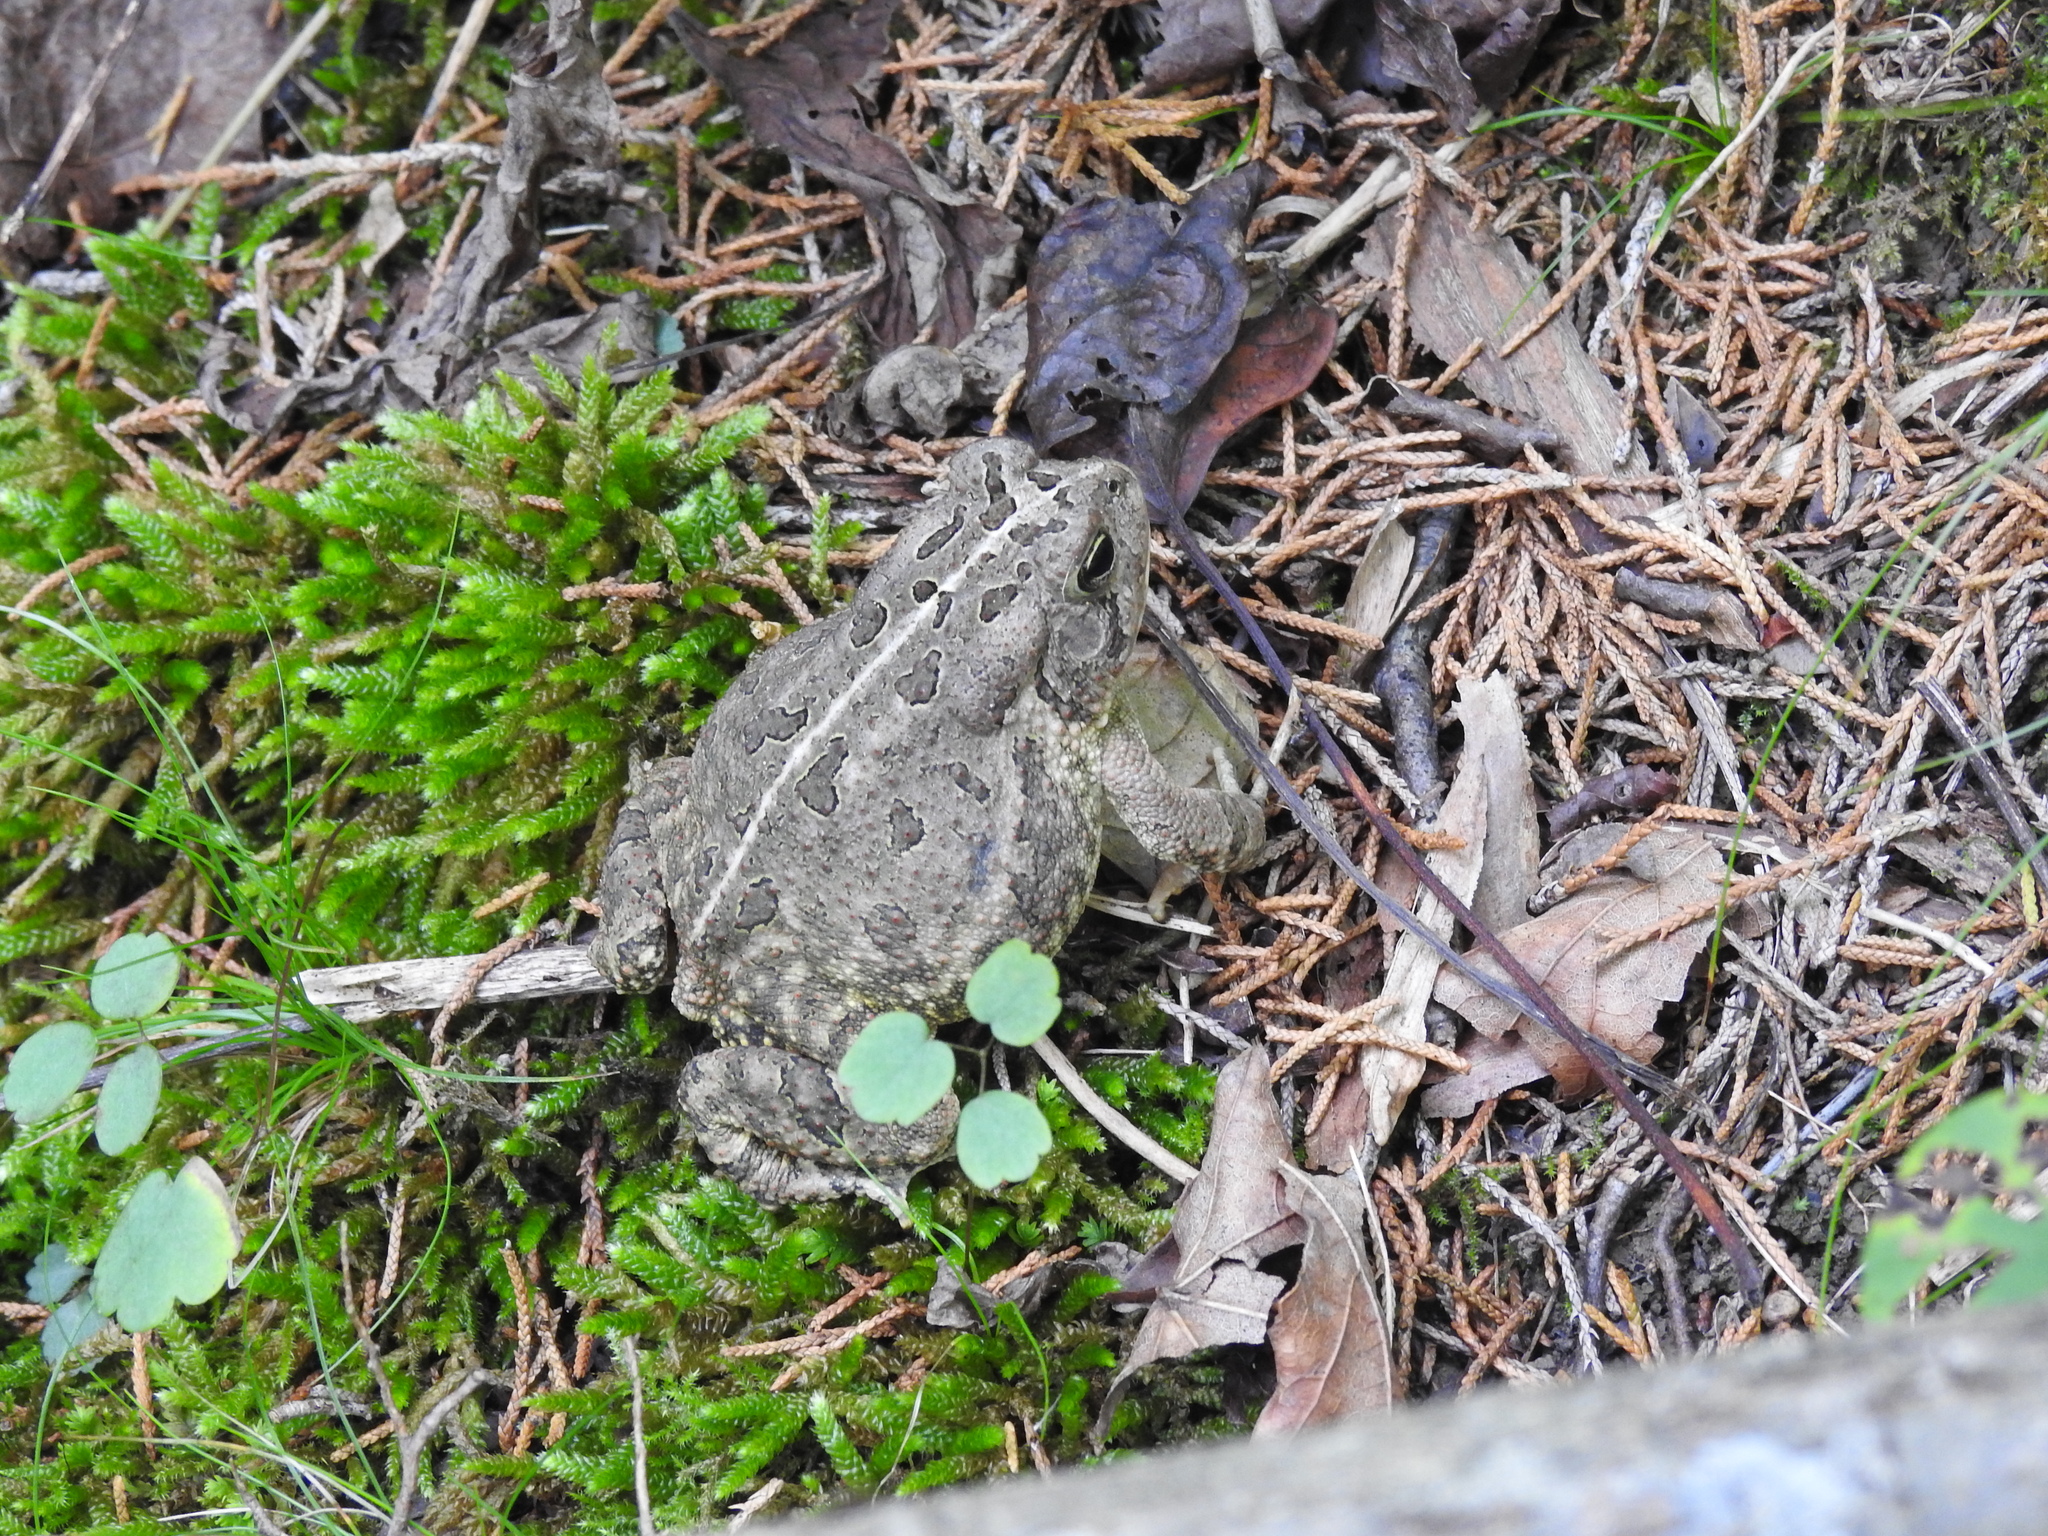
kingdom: Animalia
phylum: Chordata
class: Amphibia
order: Anura
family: Bufonidae
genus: Anaxyrus
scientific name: Anaxyrus fowleri
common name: Fowler's toad
